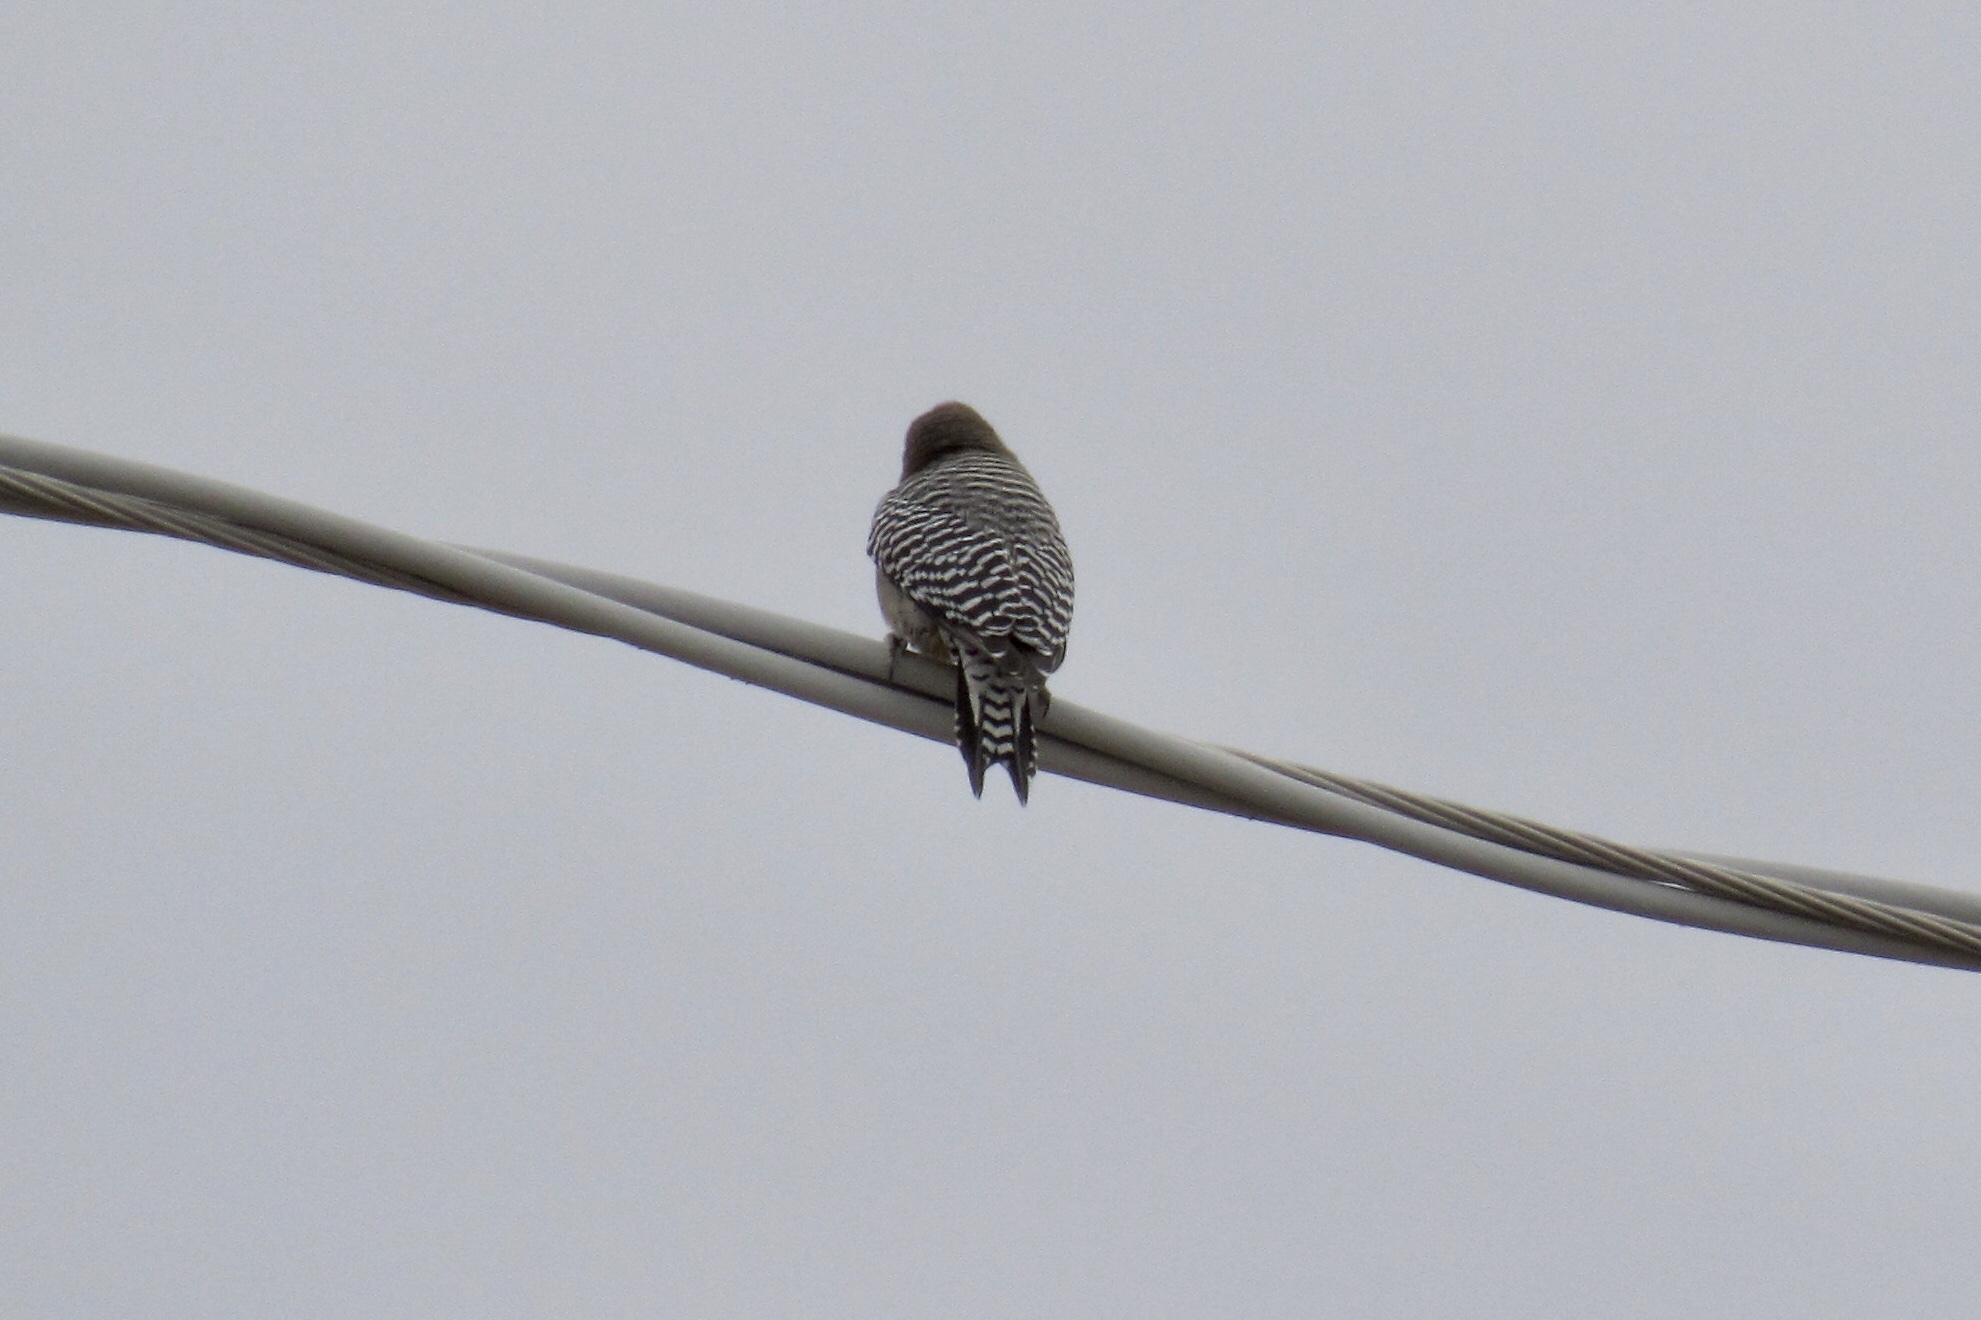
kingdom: Animalia
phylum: Chordata
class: Aves
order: Piciformes
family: Picidae
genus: Melanerpes
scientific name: Melanerpes uropygialis
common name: Gila woodpecker
